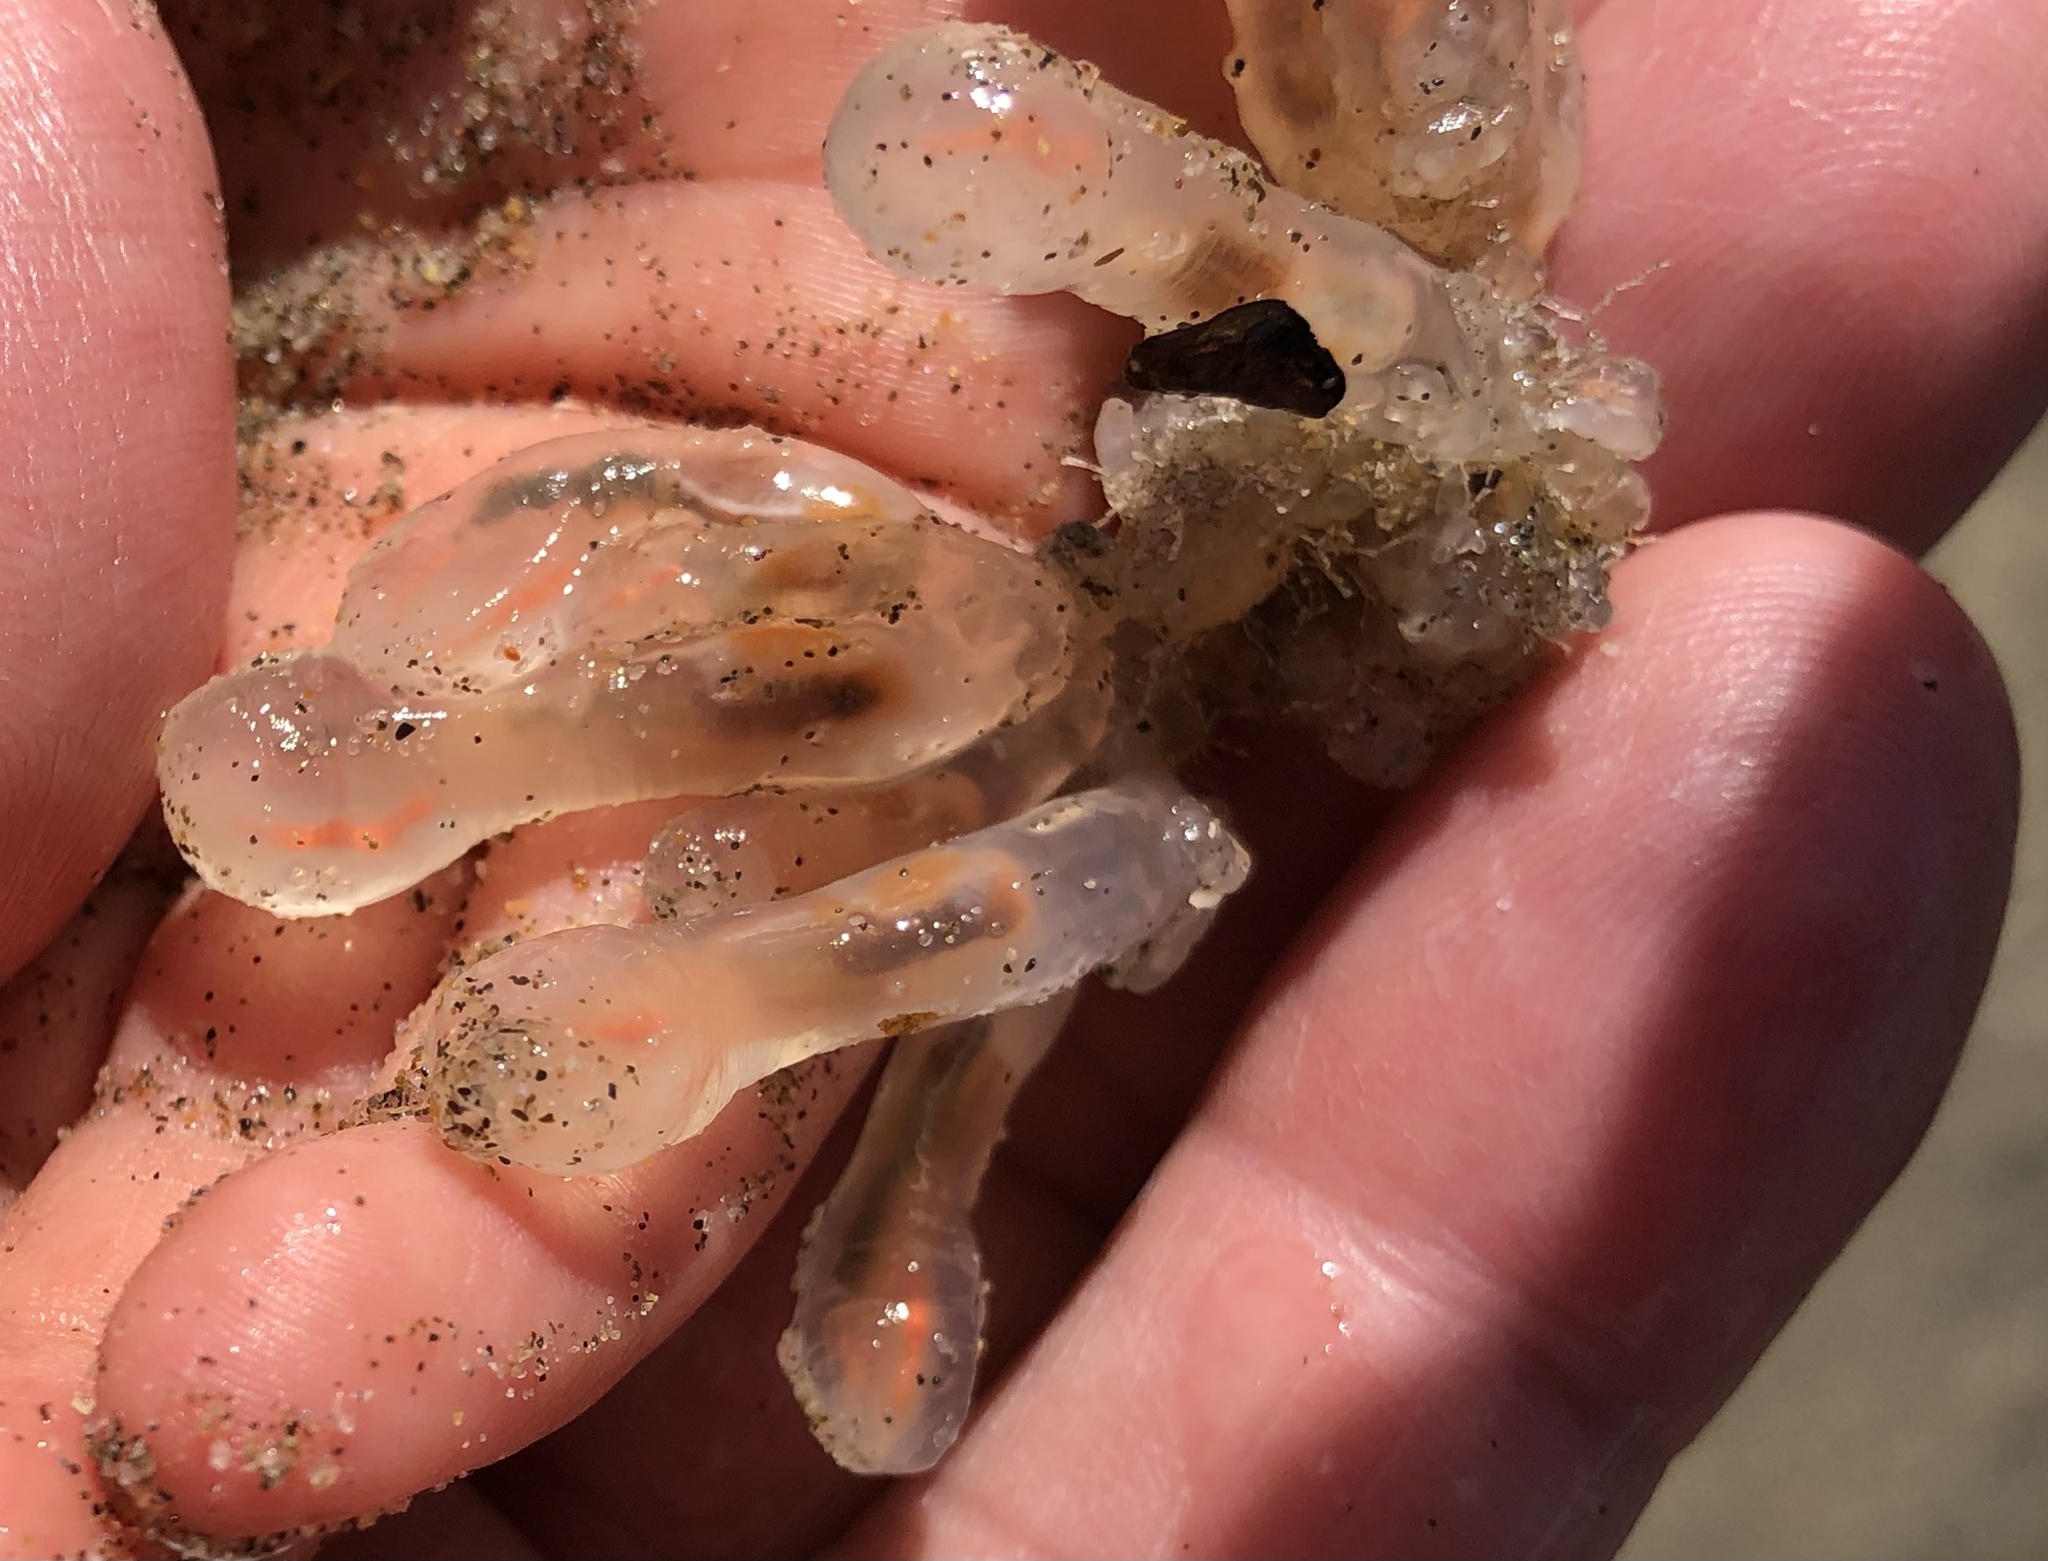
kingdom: Animalia
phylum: Chordata
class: Ascidiacea
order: Aplousobranchia
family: Clavelinidae
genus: Clavelina
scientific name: Clavelina huntsmani
